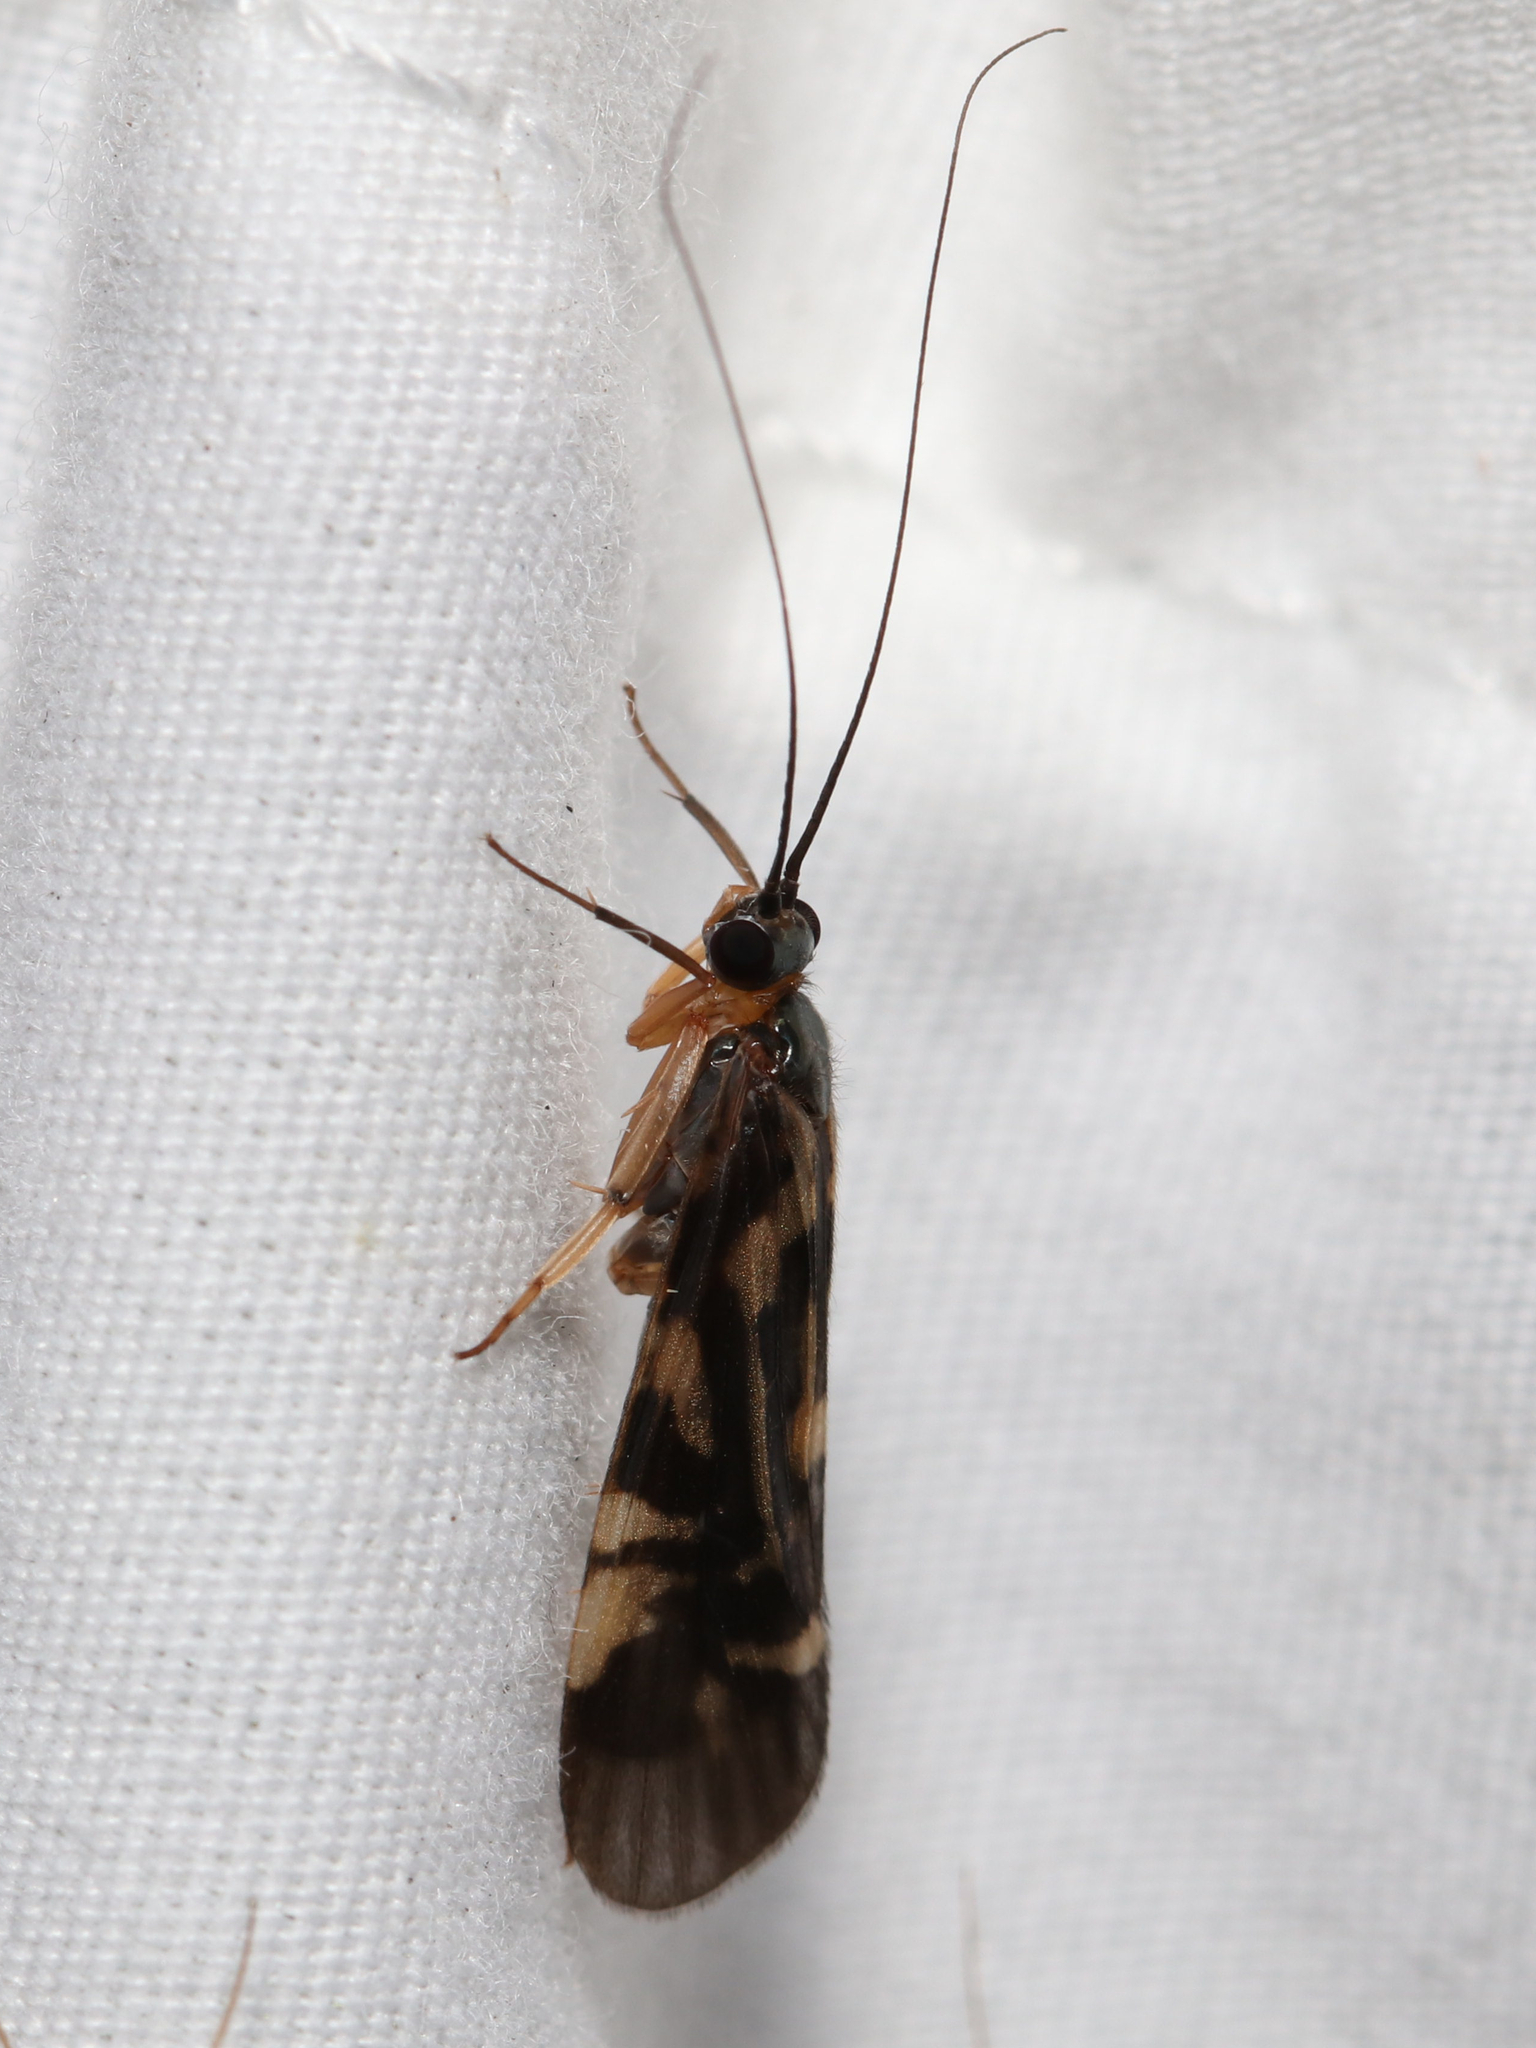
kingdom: Animalia
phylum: Arthropoda
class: Insecta
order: Trichoptera
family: Hydropsychidae
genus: Macrostemum
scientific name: Macrostemum carolina
